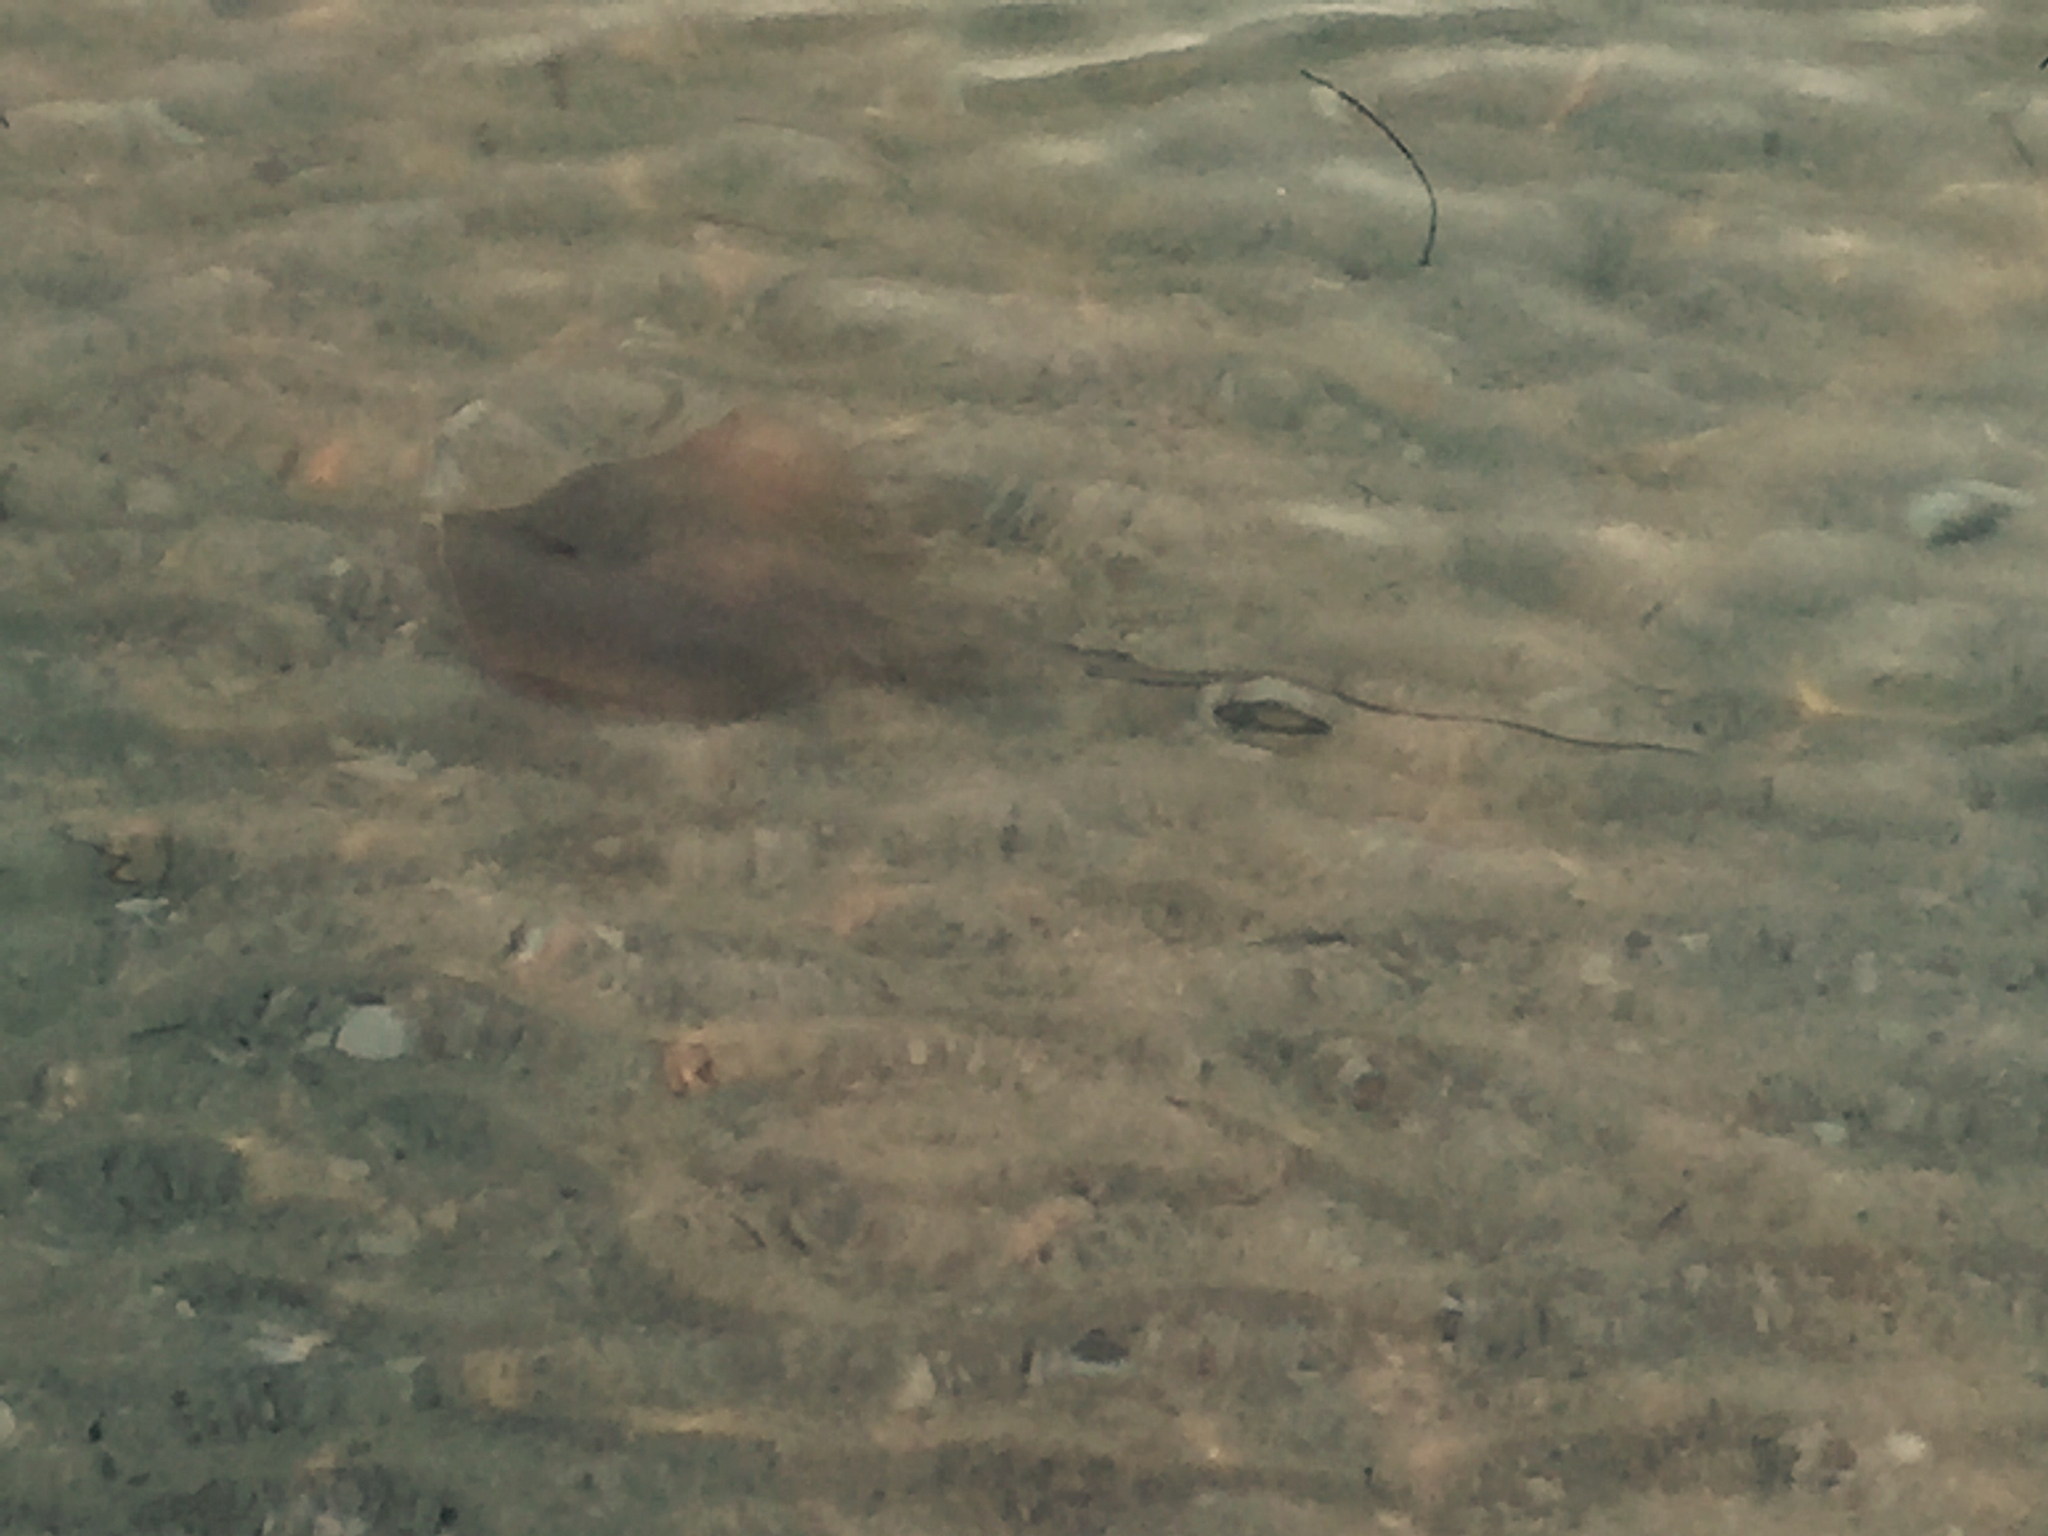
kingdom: Animalia
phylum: Chordata
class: Elasmobranchii
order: Myliobatiformes
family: Dasyatidae
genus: Hypanus
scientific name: Hypanus americanus
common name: Southern stingray
